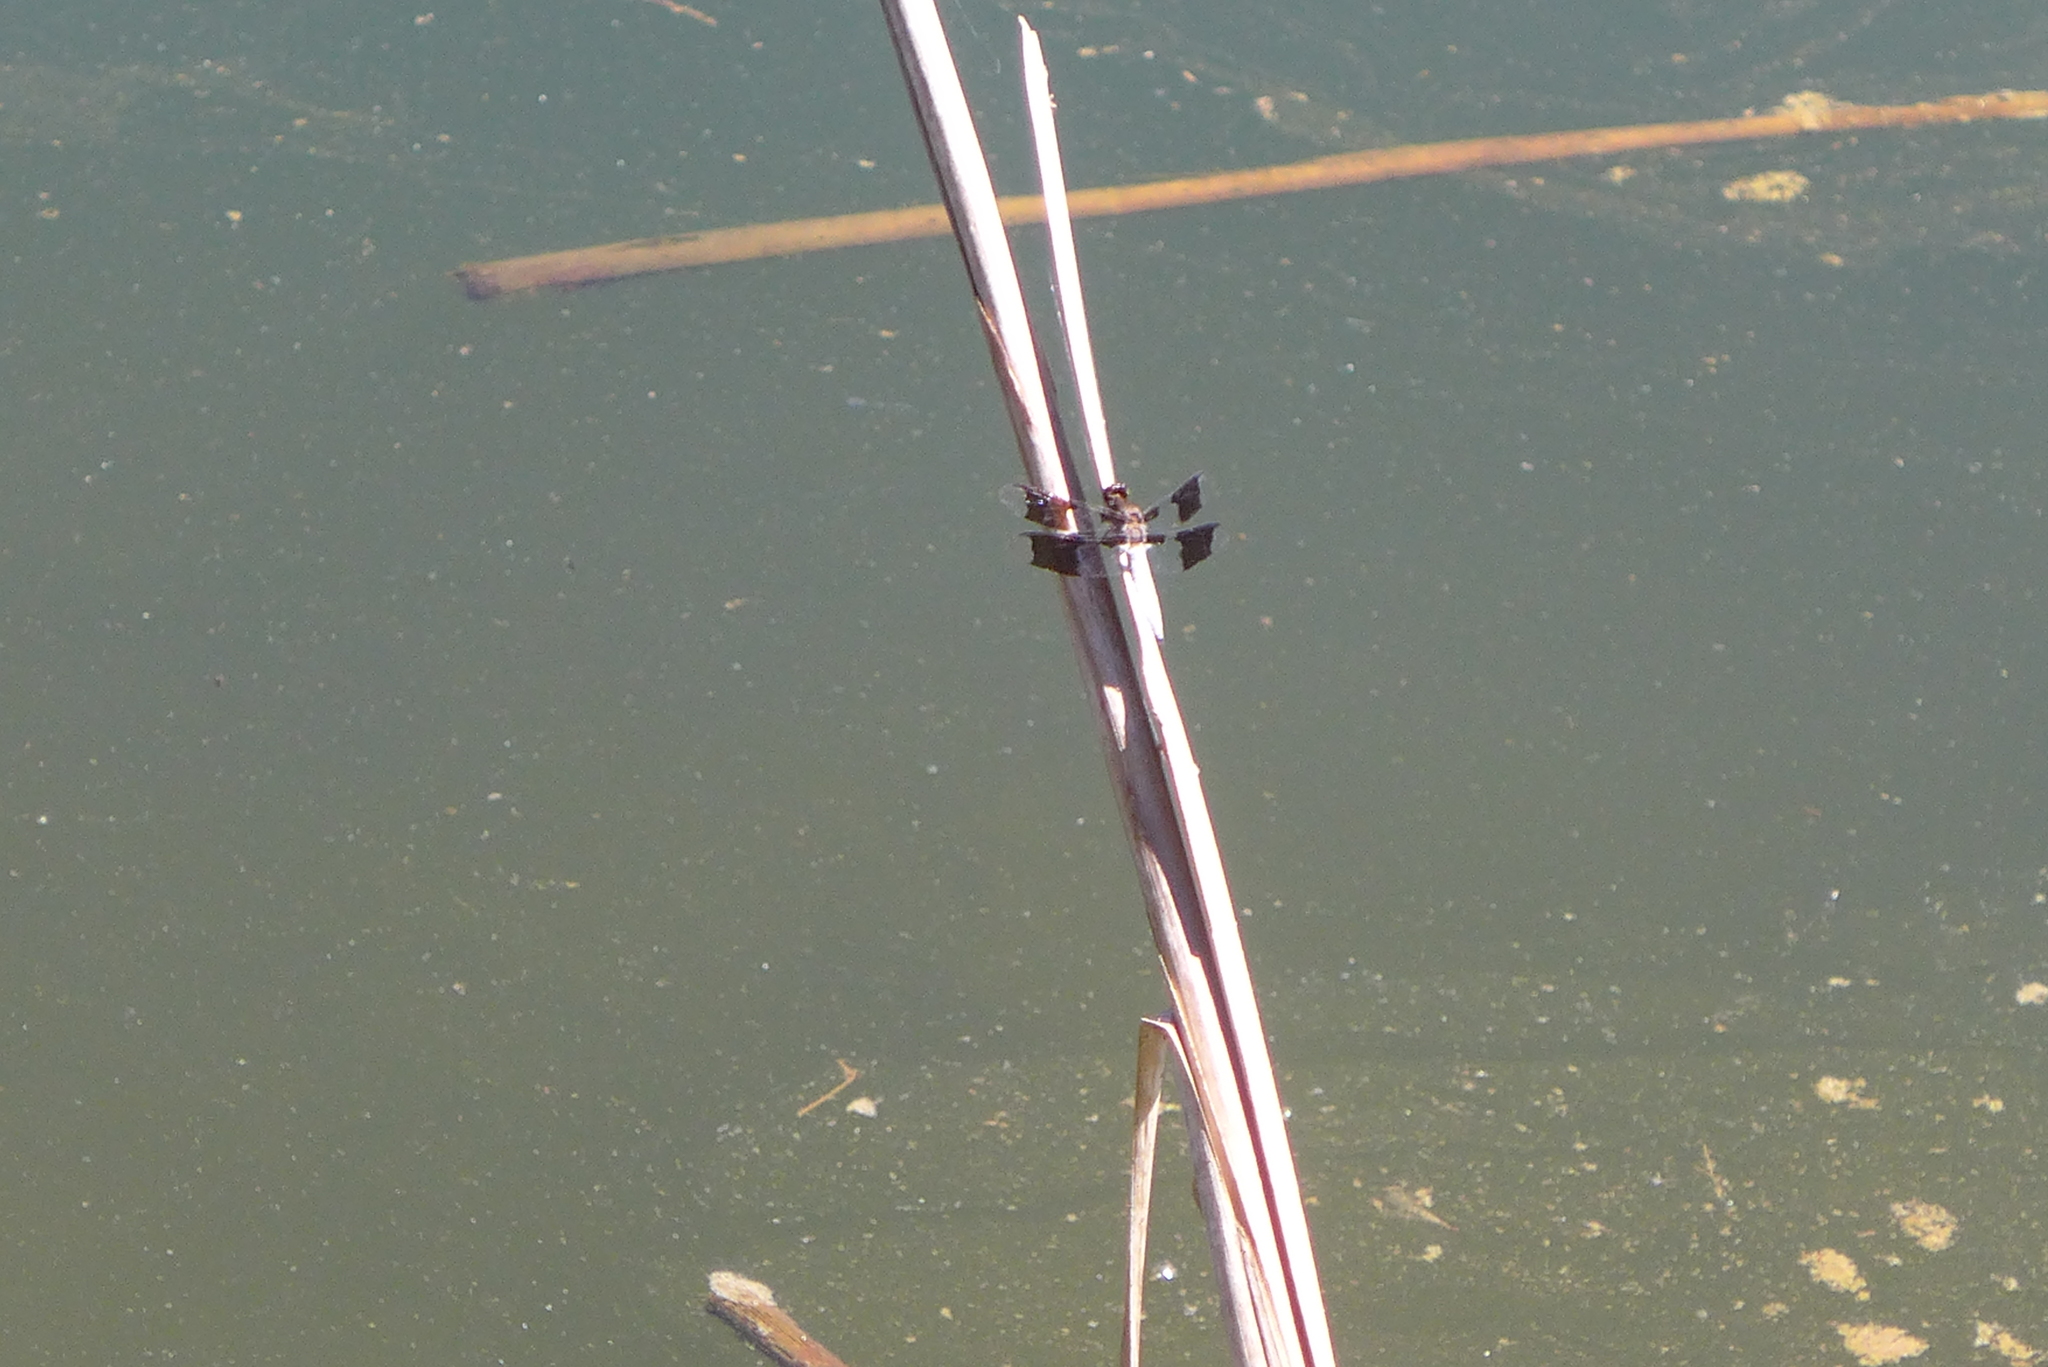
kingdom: Animalia
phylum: Arthropoda
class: Insecta
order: Odonata
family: Libellulidae
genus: Plathemis
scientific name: Plathemis lydia
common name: Common whitetail
